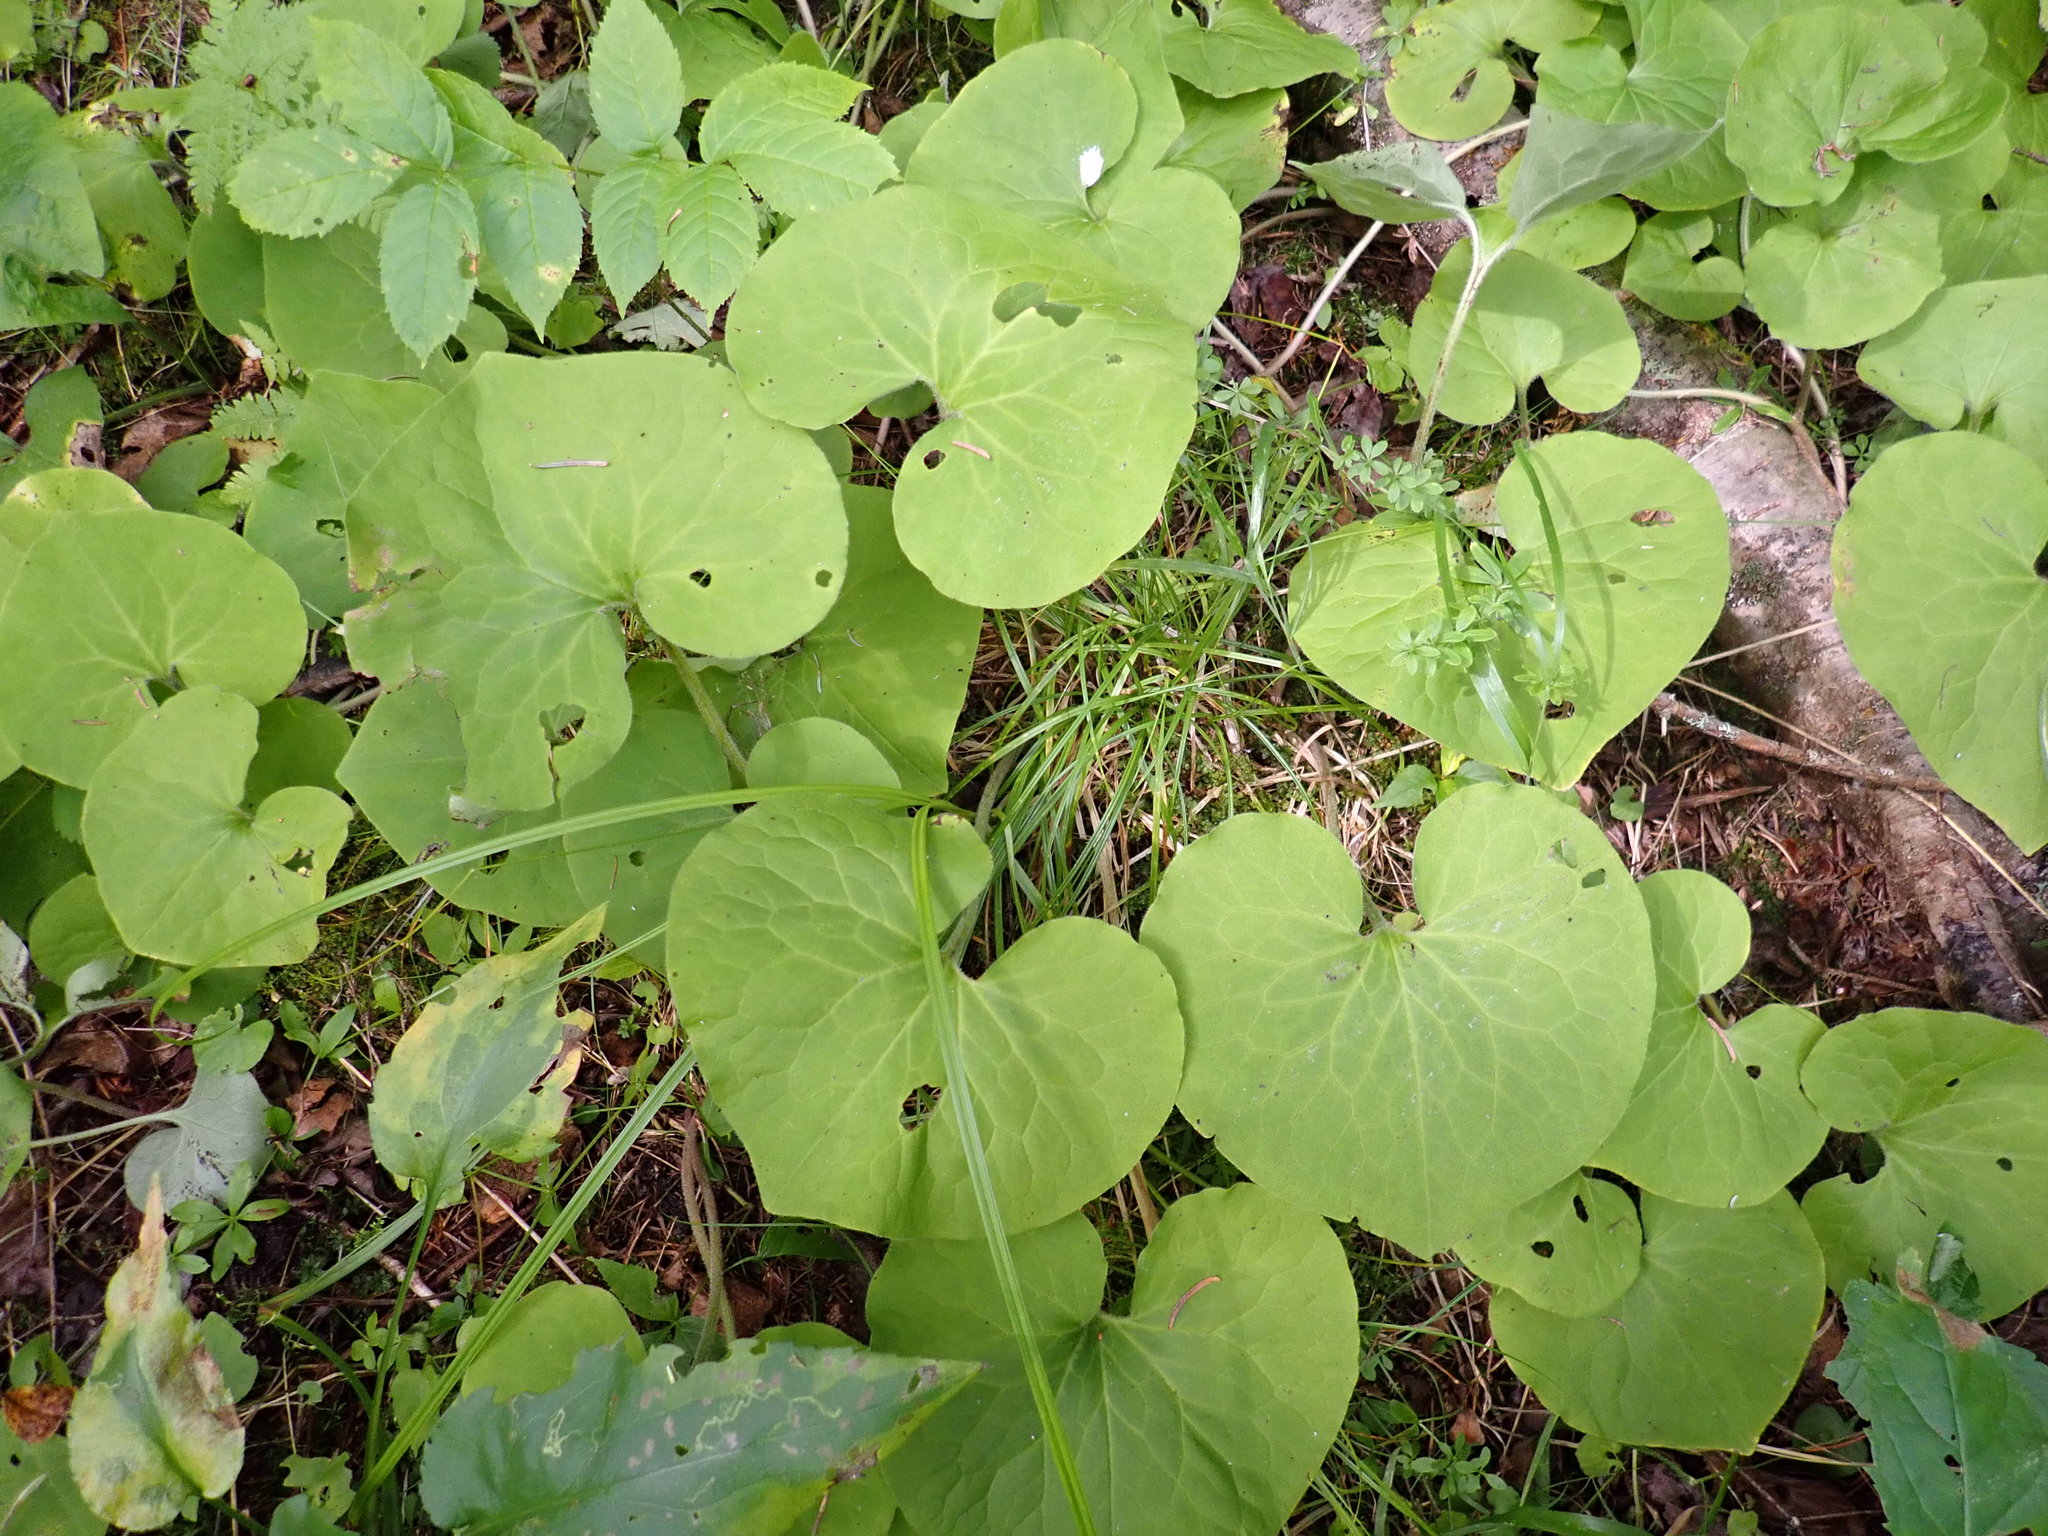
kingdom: Plantae
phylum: Tracheophyta
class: Magnoliopsida
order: Piperales
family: Aristolochiaceae
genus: Asarum
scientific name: Asarum canadense
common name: Wild ginger
